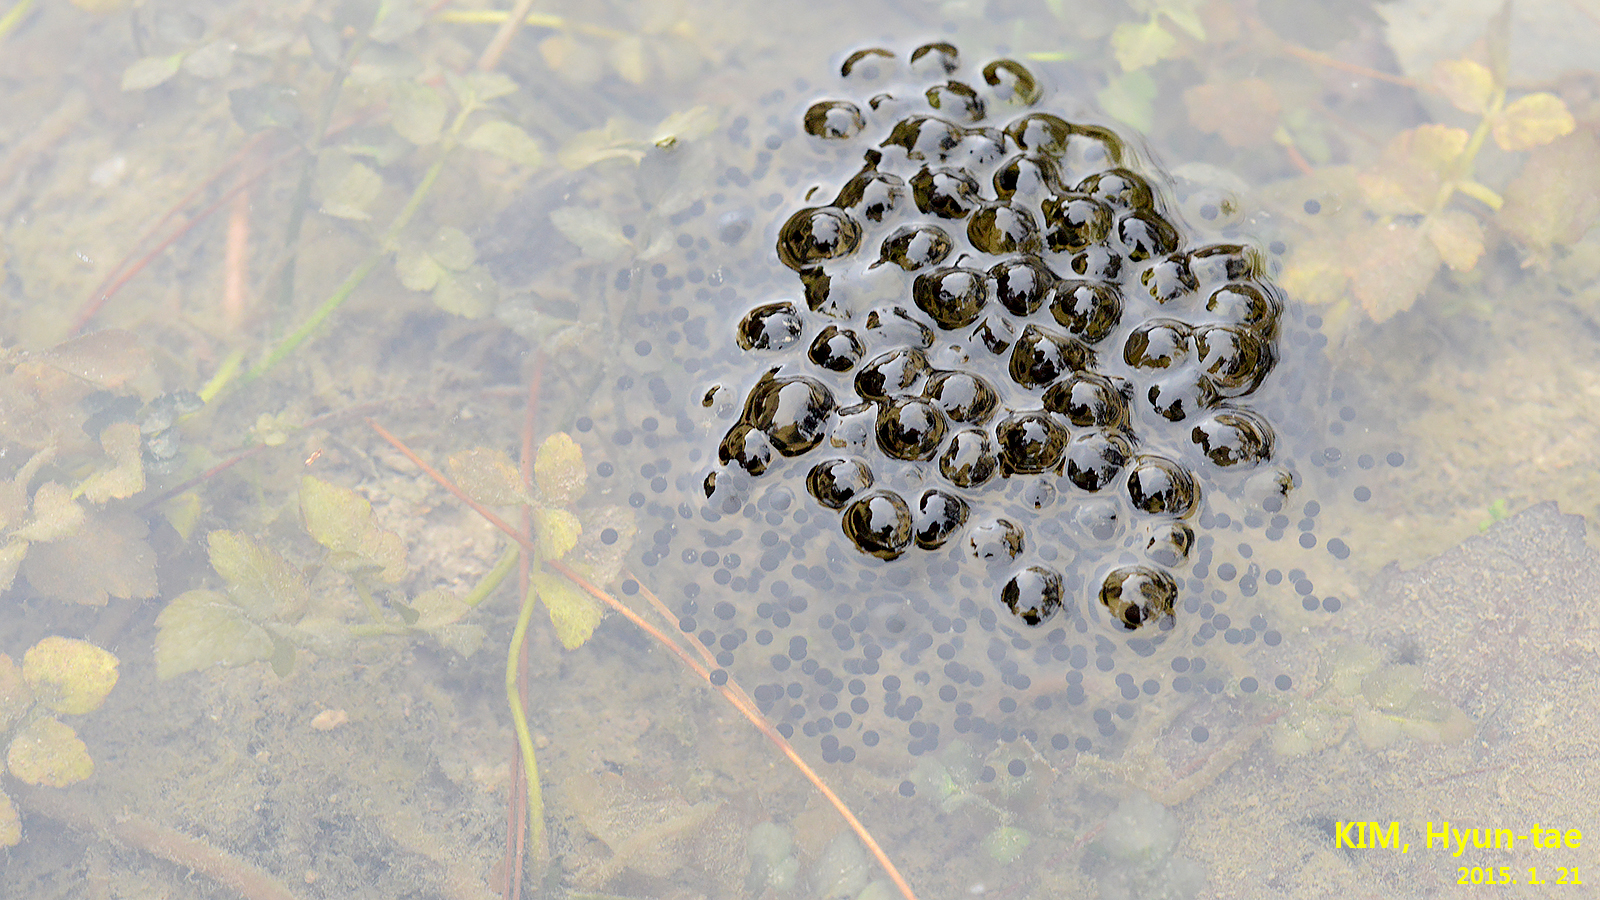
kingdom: Animalia
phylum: Chordata
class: Amphibia
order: Anura
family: Ranidae
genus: Rana
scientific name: Rana uenoi
